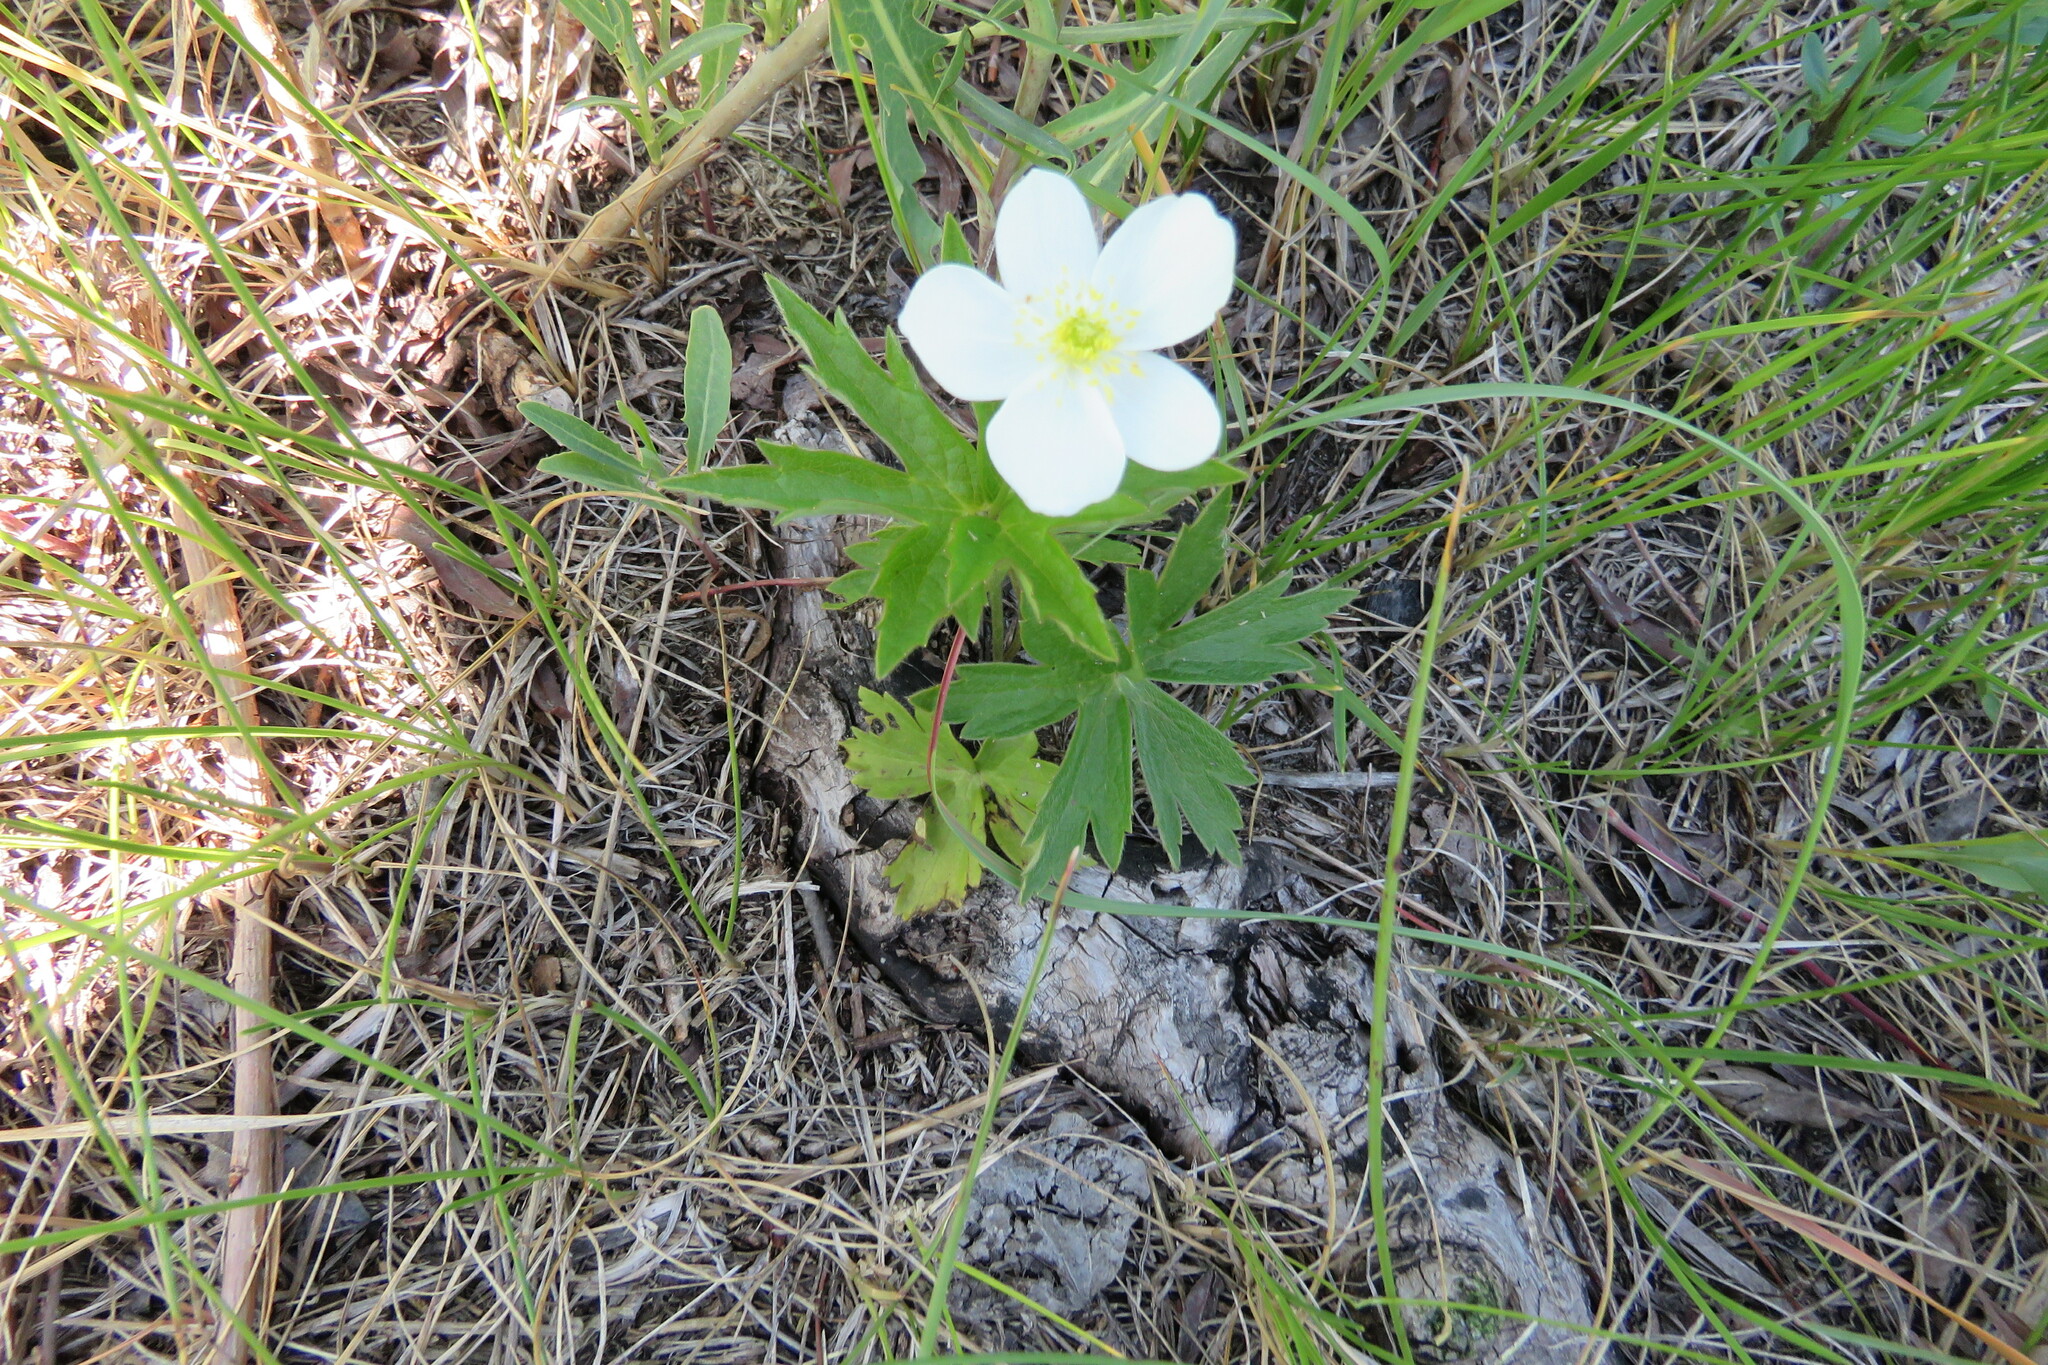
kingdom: Plantae
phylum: Tracheophyta
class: Magnoliopsida
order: Ranunculales
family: Ranunculaceae
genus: Anemonastrum
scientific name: Anemonastrum canadense
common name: Canada anemone
